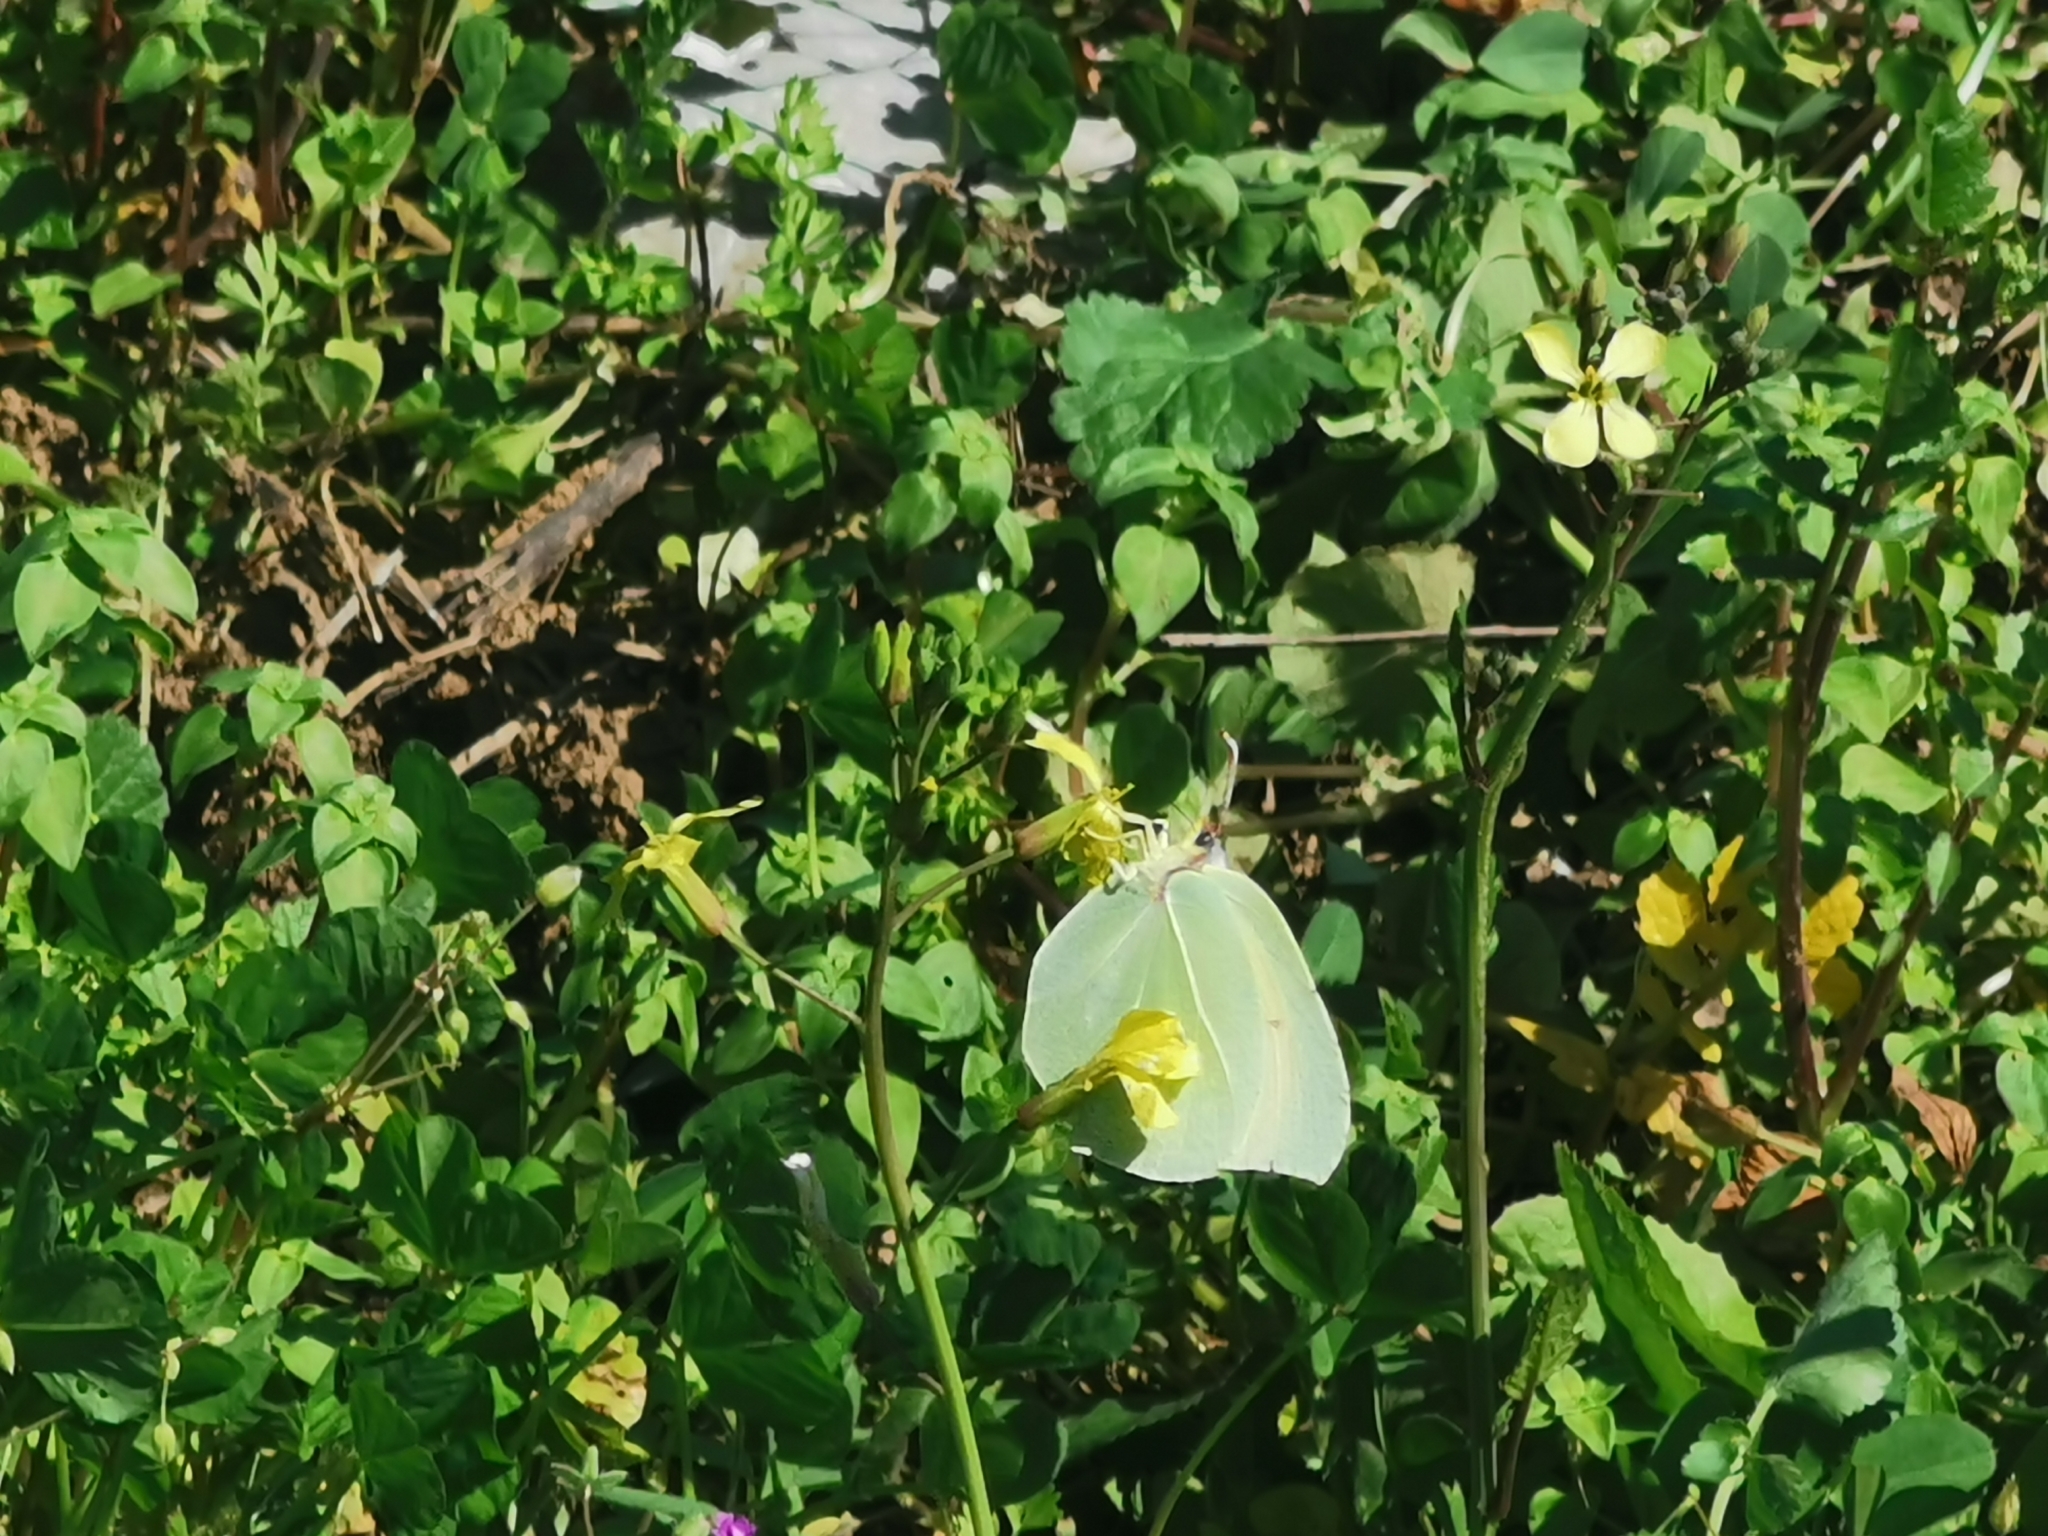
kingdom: Animalia
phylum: Arthropoda
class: Insecta
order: Lepidoptera
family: Pieridae
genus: Gonepteryx
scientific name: Gonepteryx cleopatra
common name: Cleopatra
